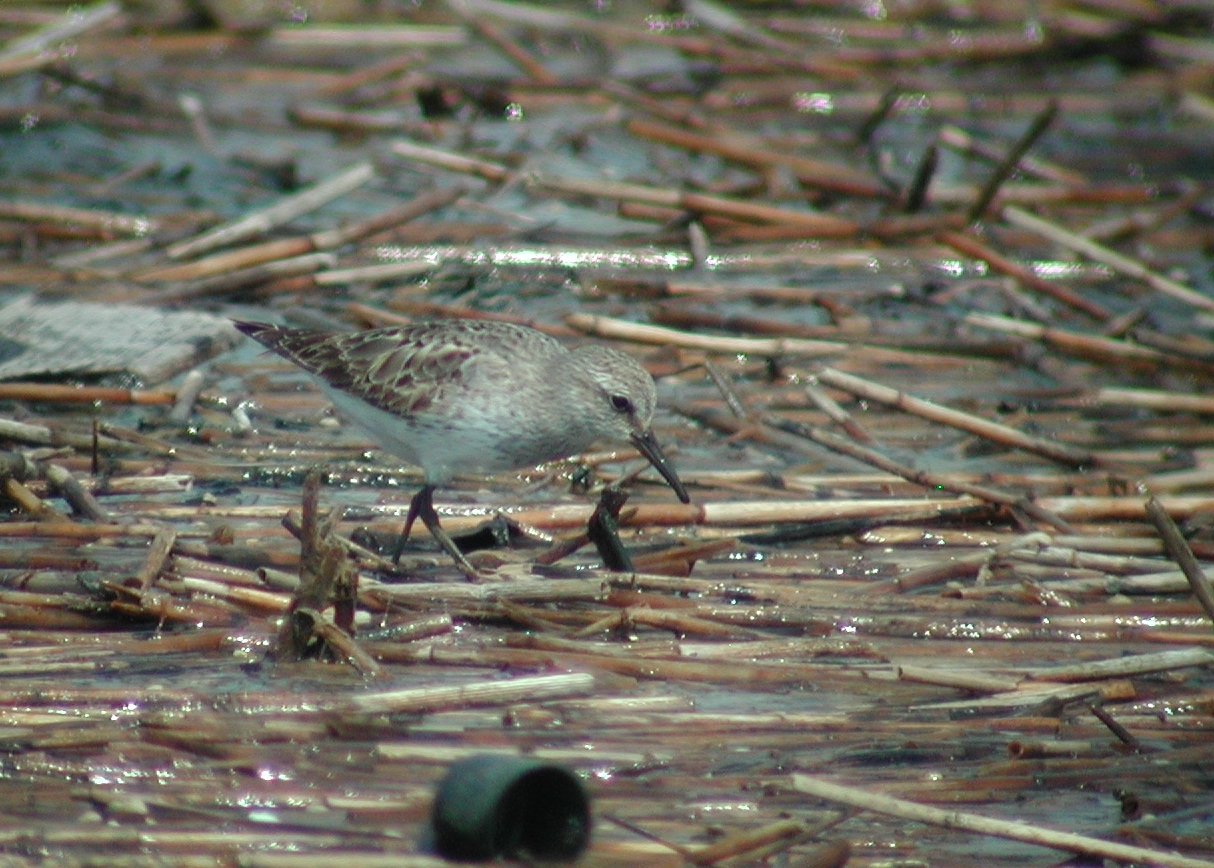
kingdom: Animalia
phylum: Chordata
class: Aves
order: Charadriiformes
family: Scolopacidae
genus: Calidris
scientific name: Calidris fuscicollis
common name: White-rumped sandpiper
